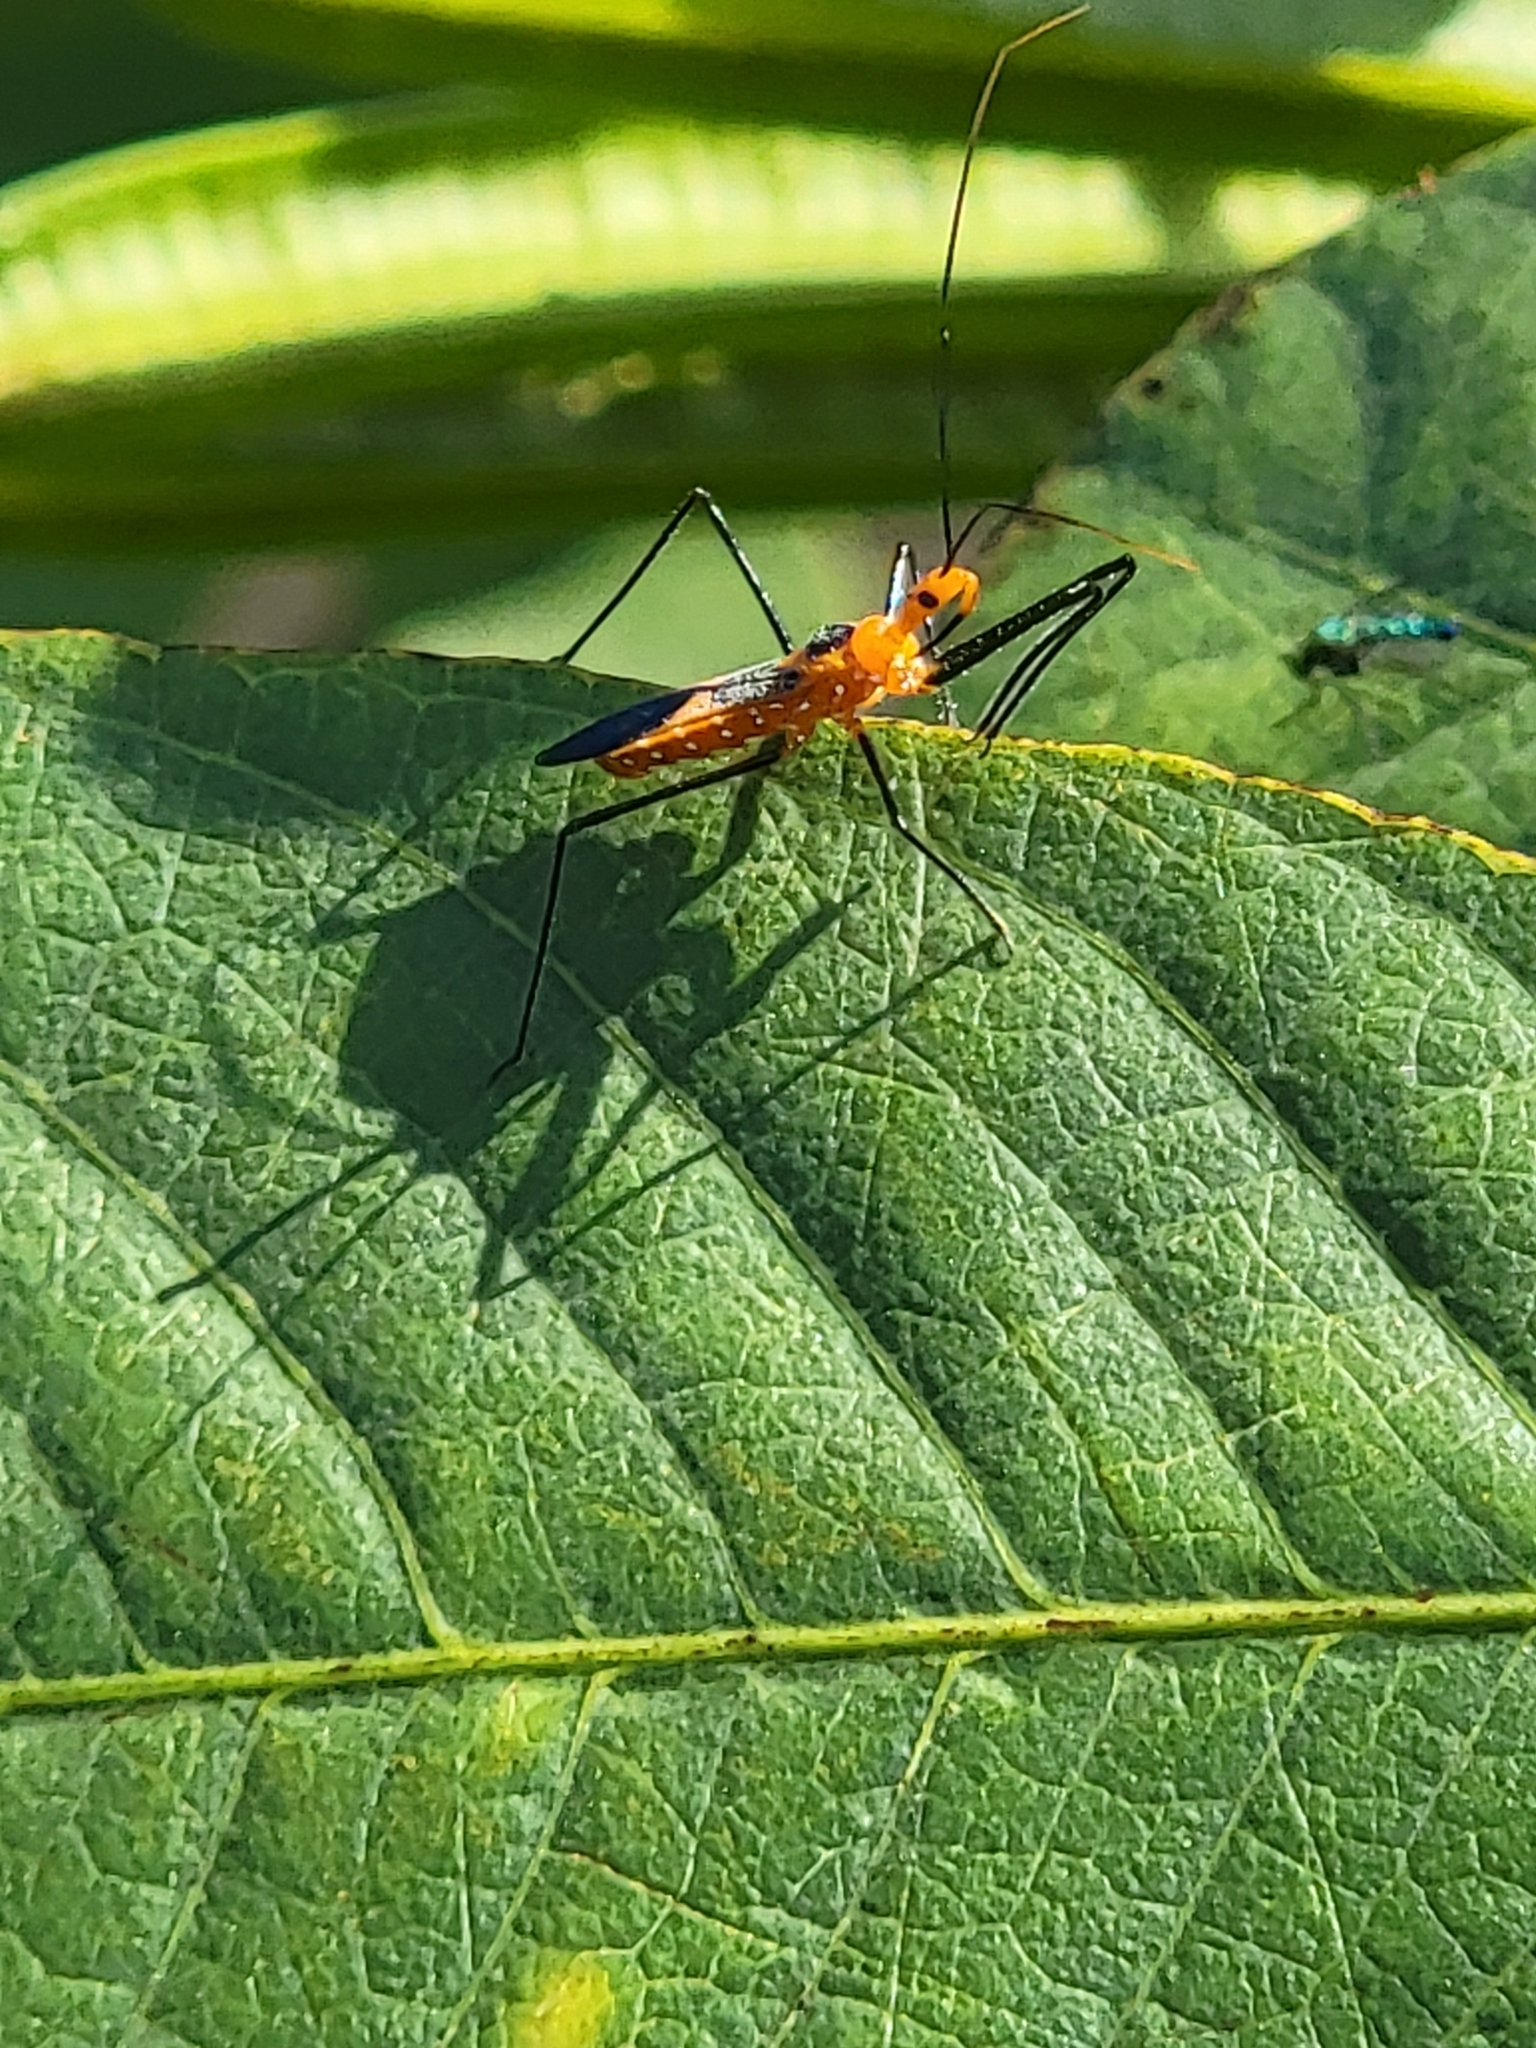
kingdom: Animalia
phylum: Arthropoda
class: Insecta
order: Hemiptera
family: Reduviidae
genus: Zelus
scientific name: Zelus longipes
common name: Milkweed assassin bug
